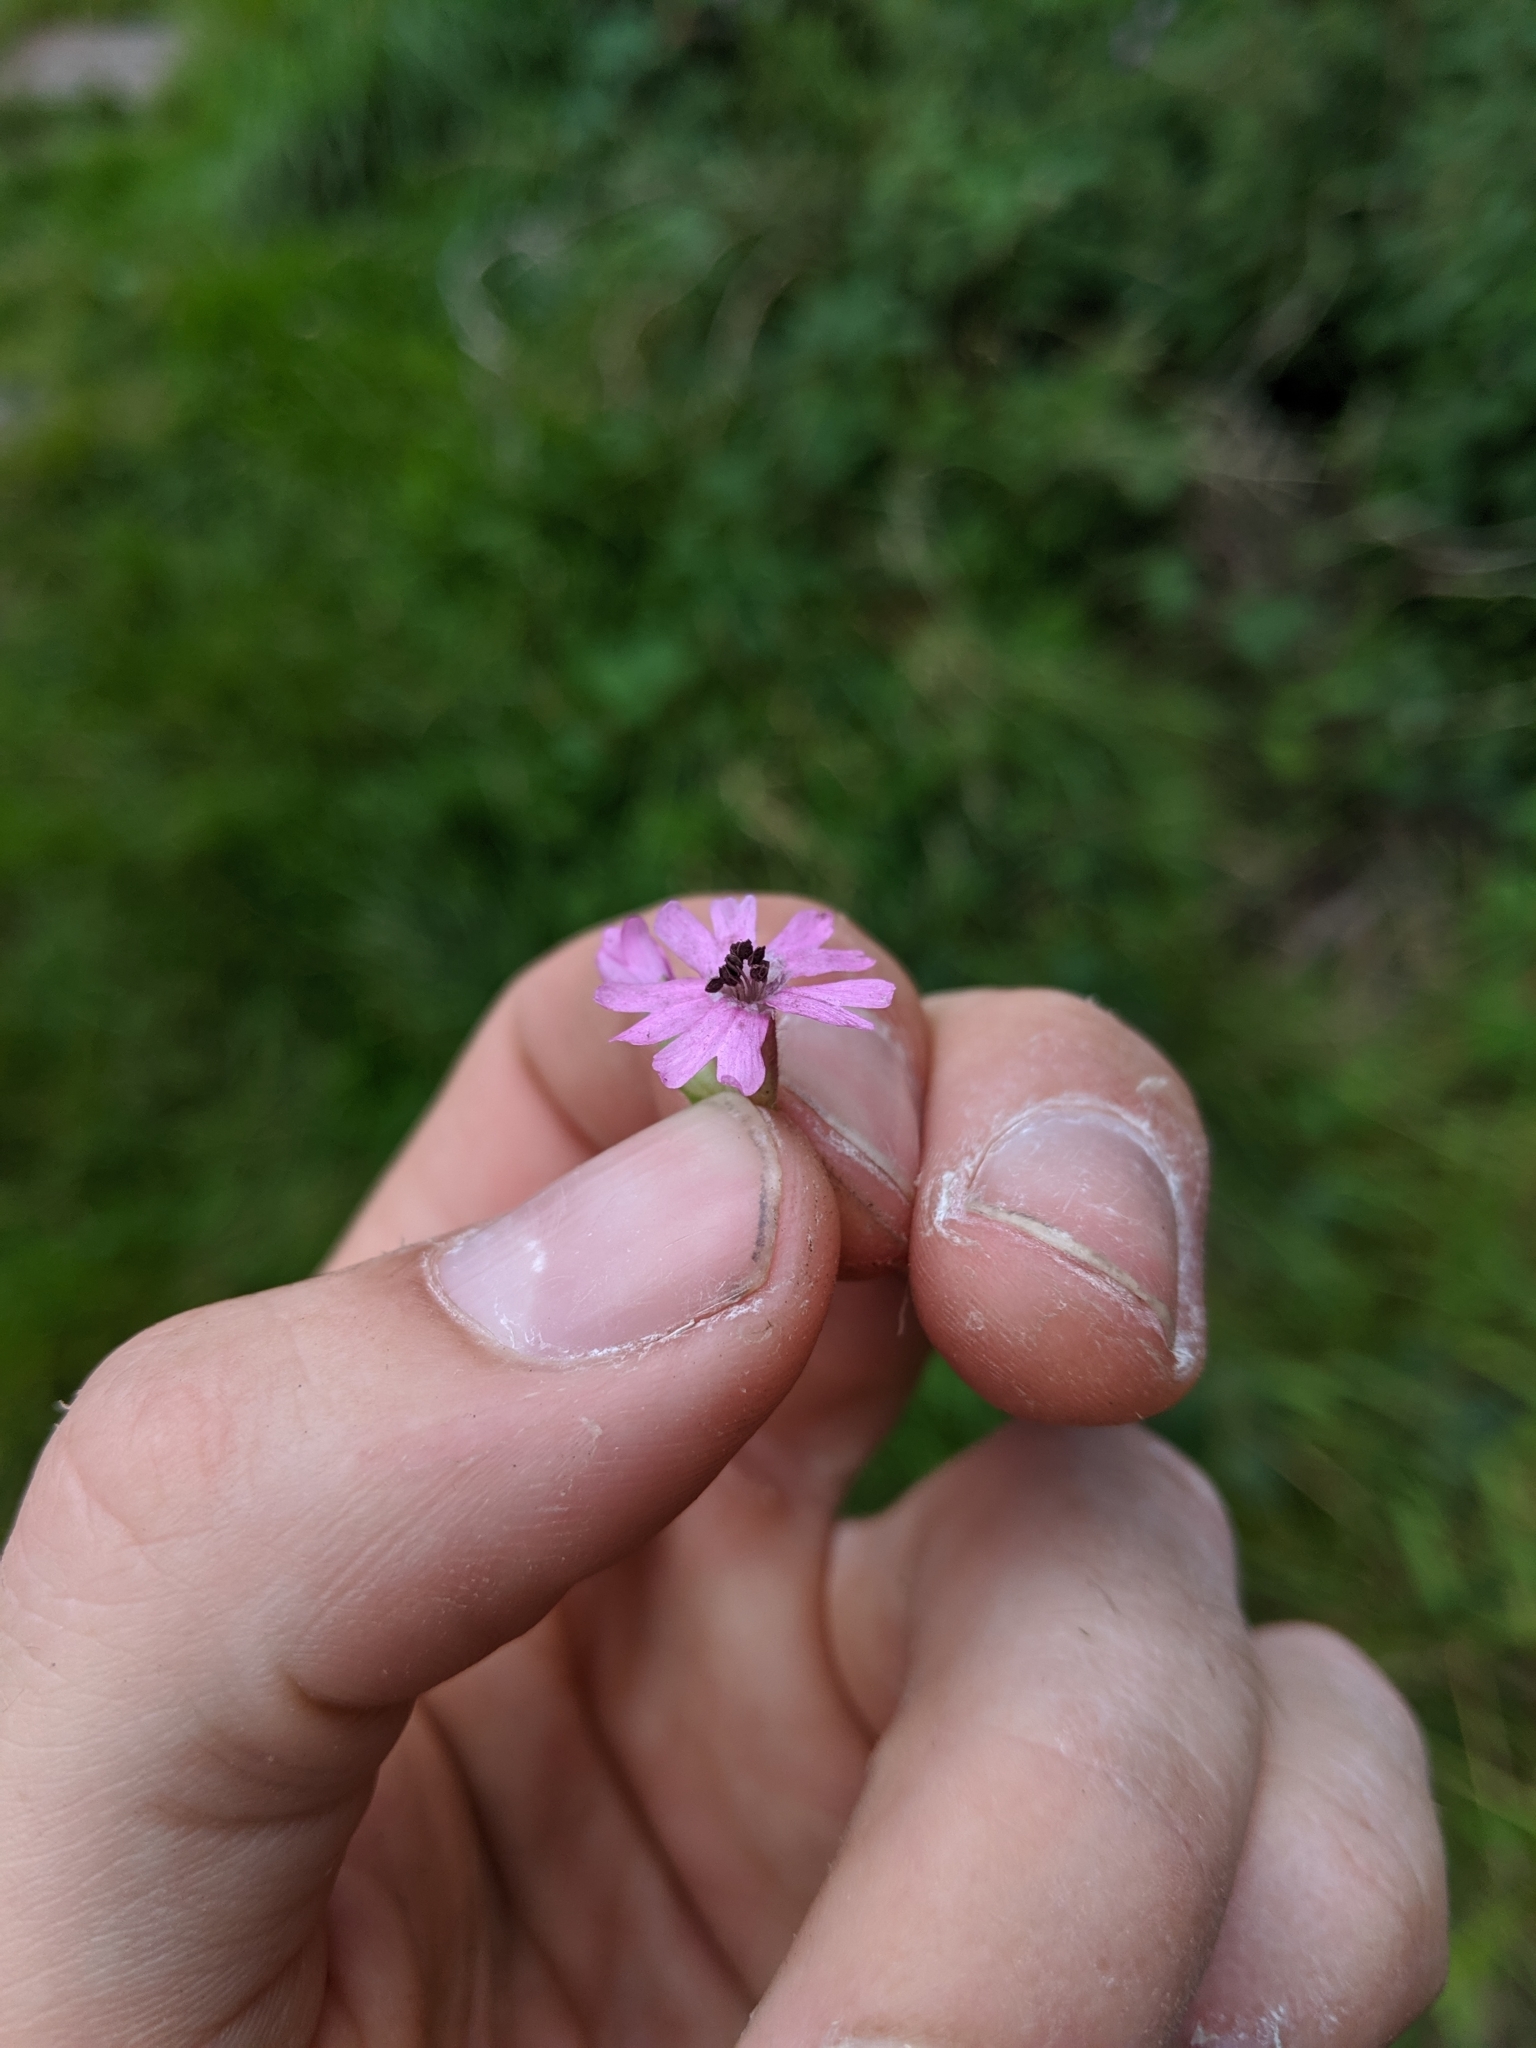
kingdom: Fungi
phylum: Basidiomycota
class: Microbotryomycetes
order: Microbotryales
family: Microbotryaceae
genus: Microbotryum
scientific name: Microbotryum silenes-dioicae
